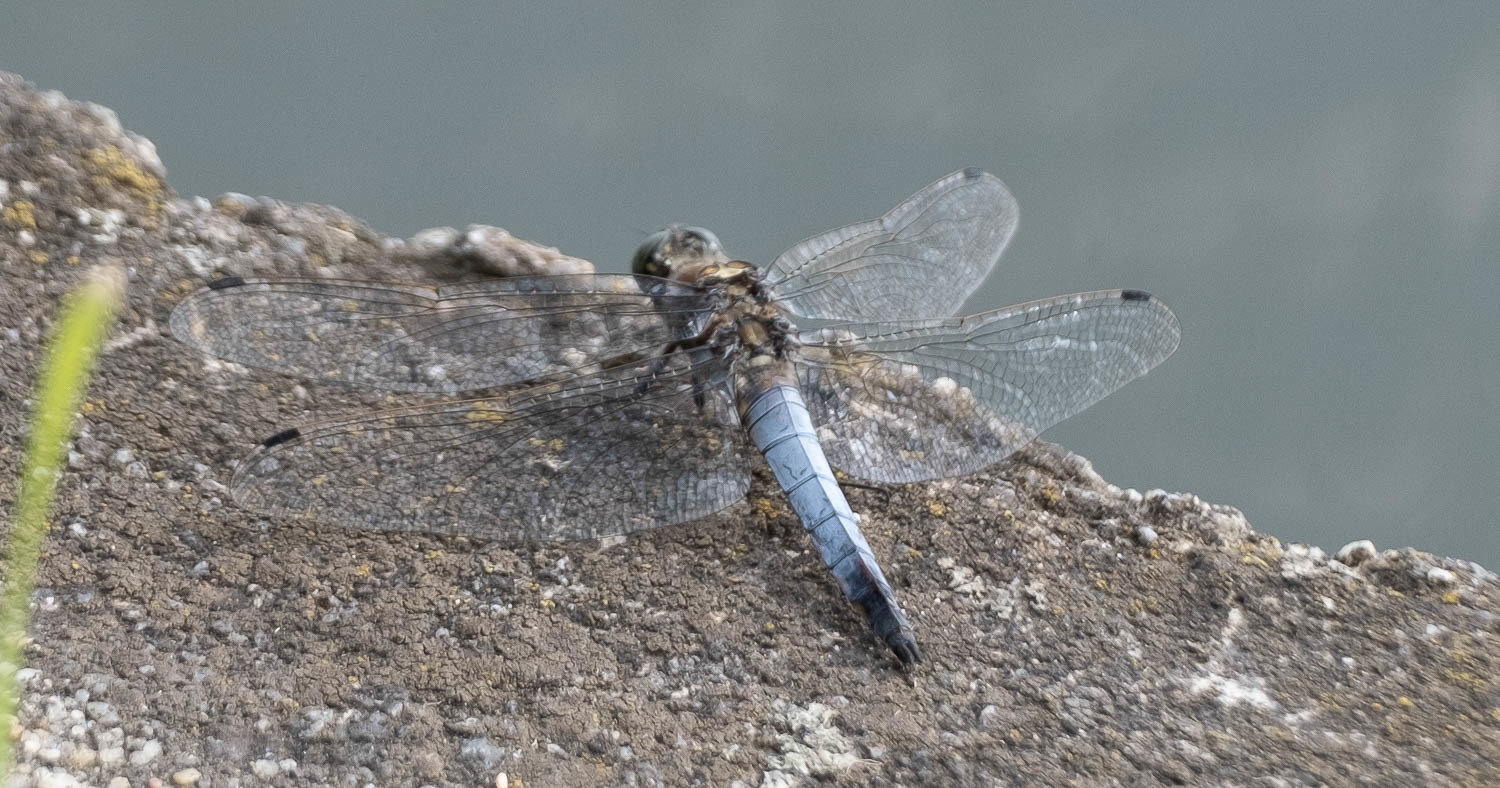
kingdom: Animalia
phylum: Arthropoda
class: Insecta
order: Odonata
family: Libellulidae
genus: Orthetrum
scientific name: Orthetrum cancellatum
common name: Black-tailed skimmer
